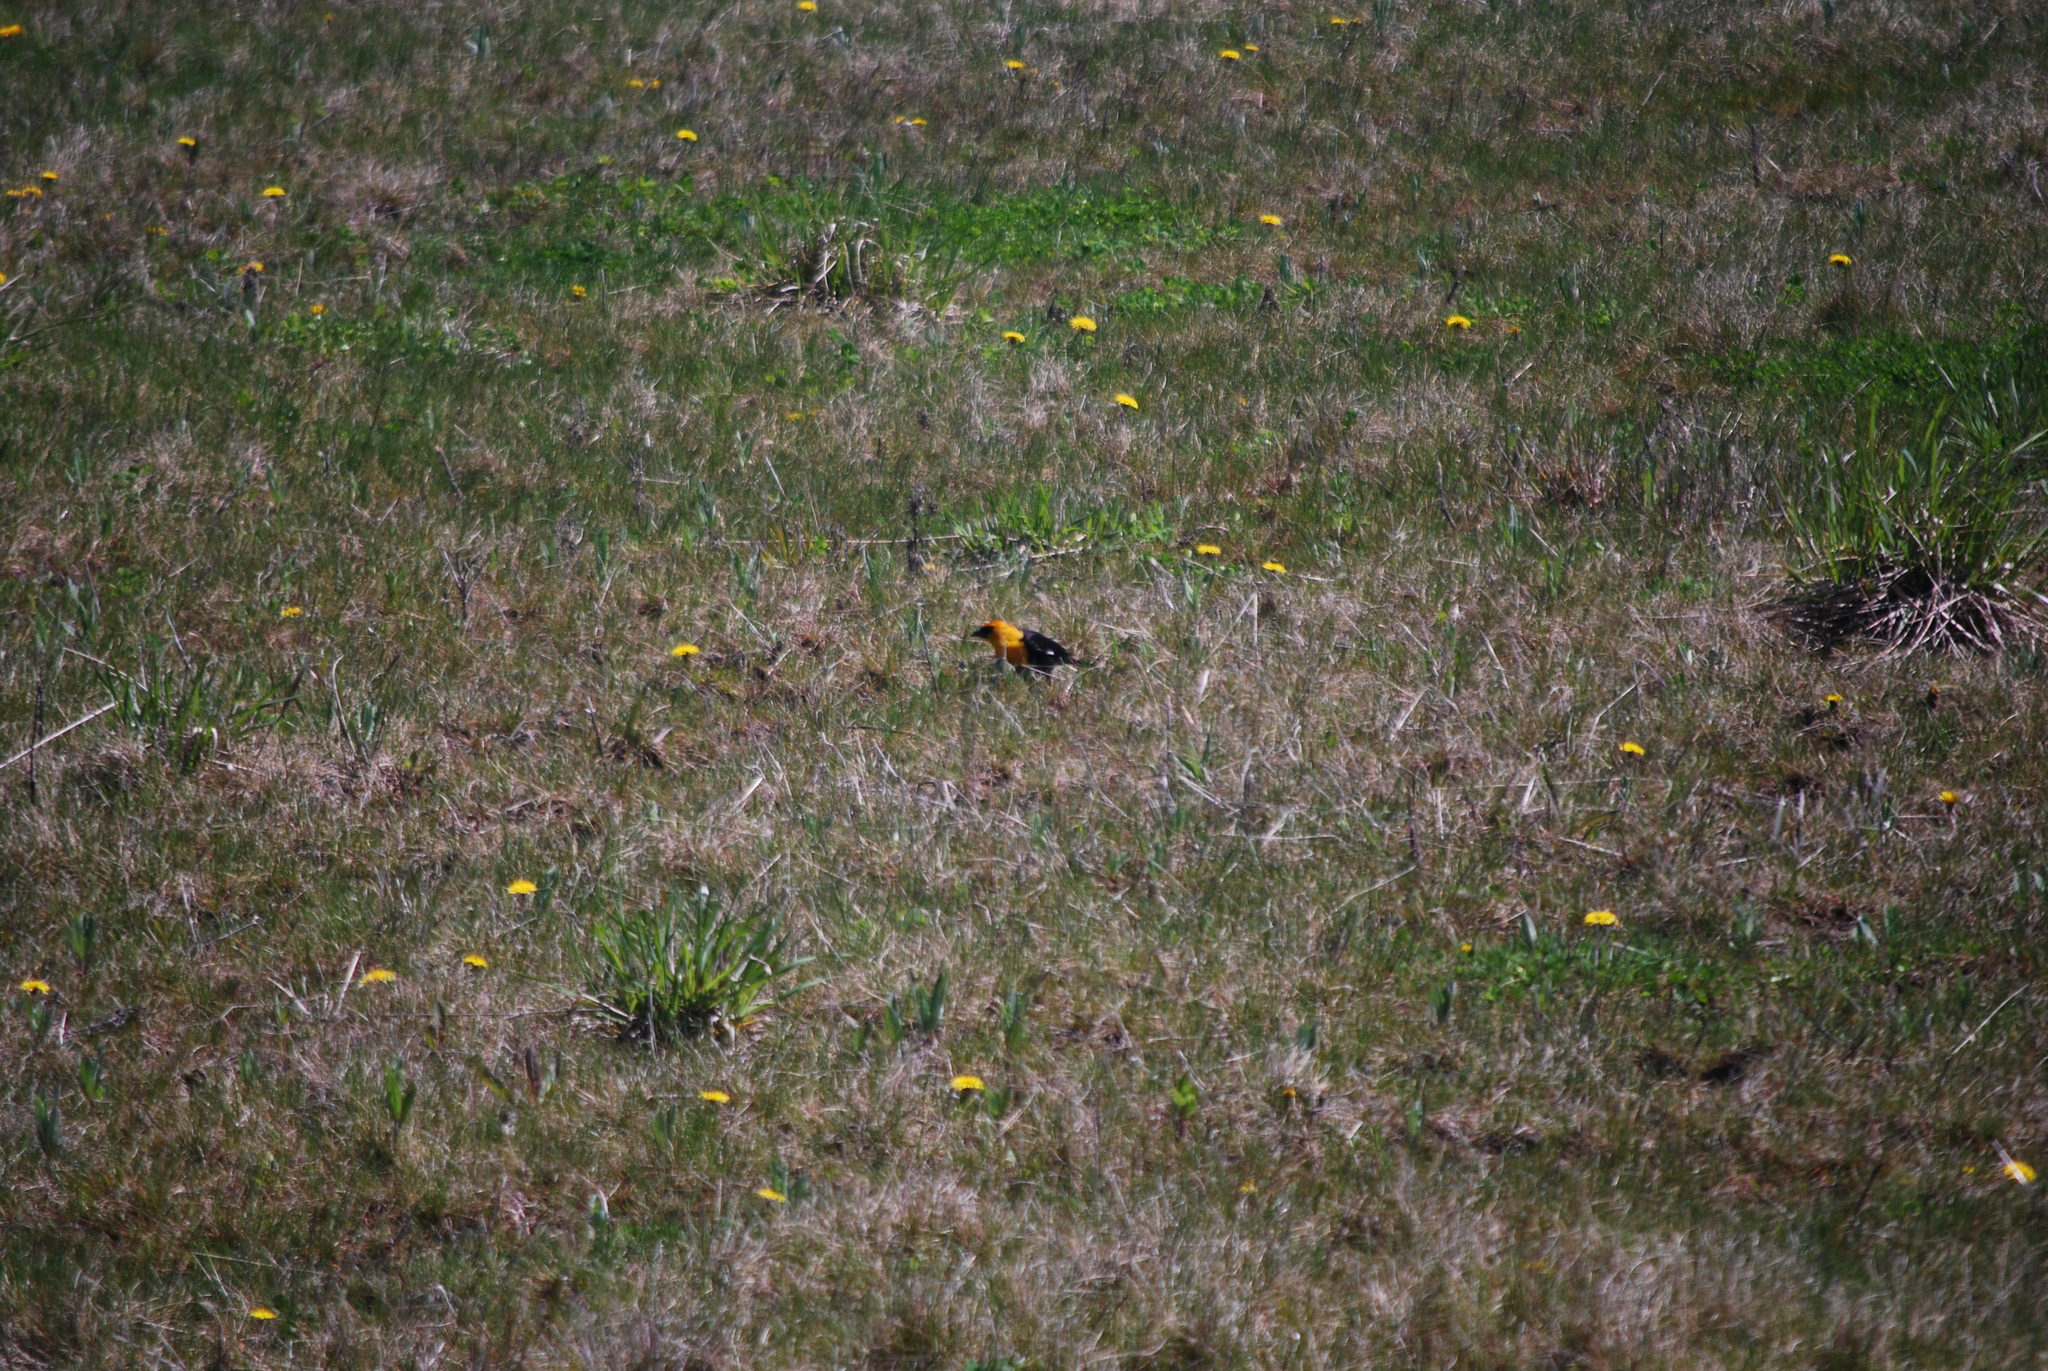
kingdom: Animalia
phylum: Chordata
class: Aves
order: Passeriformes
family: Icteridae
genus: Xanthocephalus
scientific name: Xanthocephalus xanthocephalus
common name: Yellow-headed blackbird
